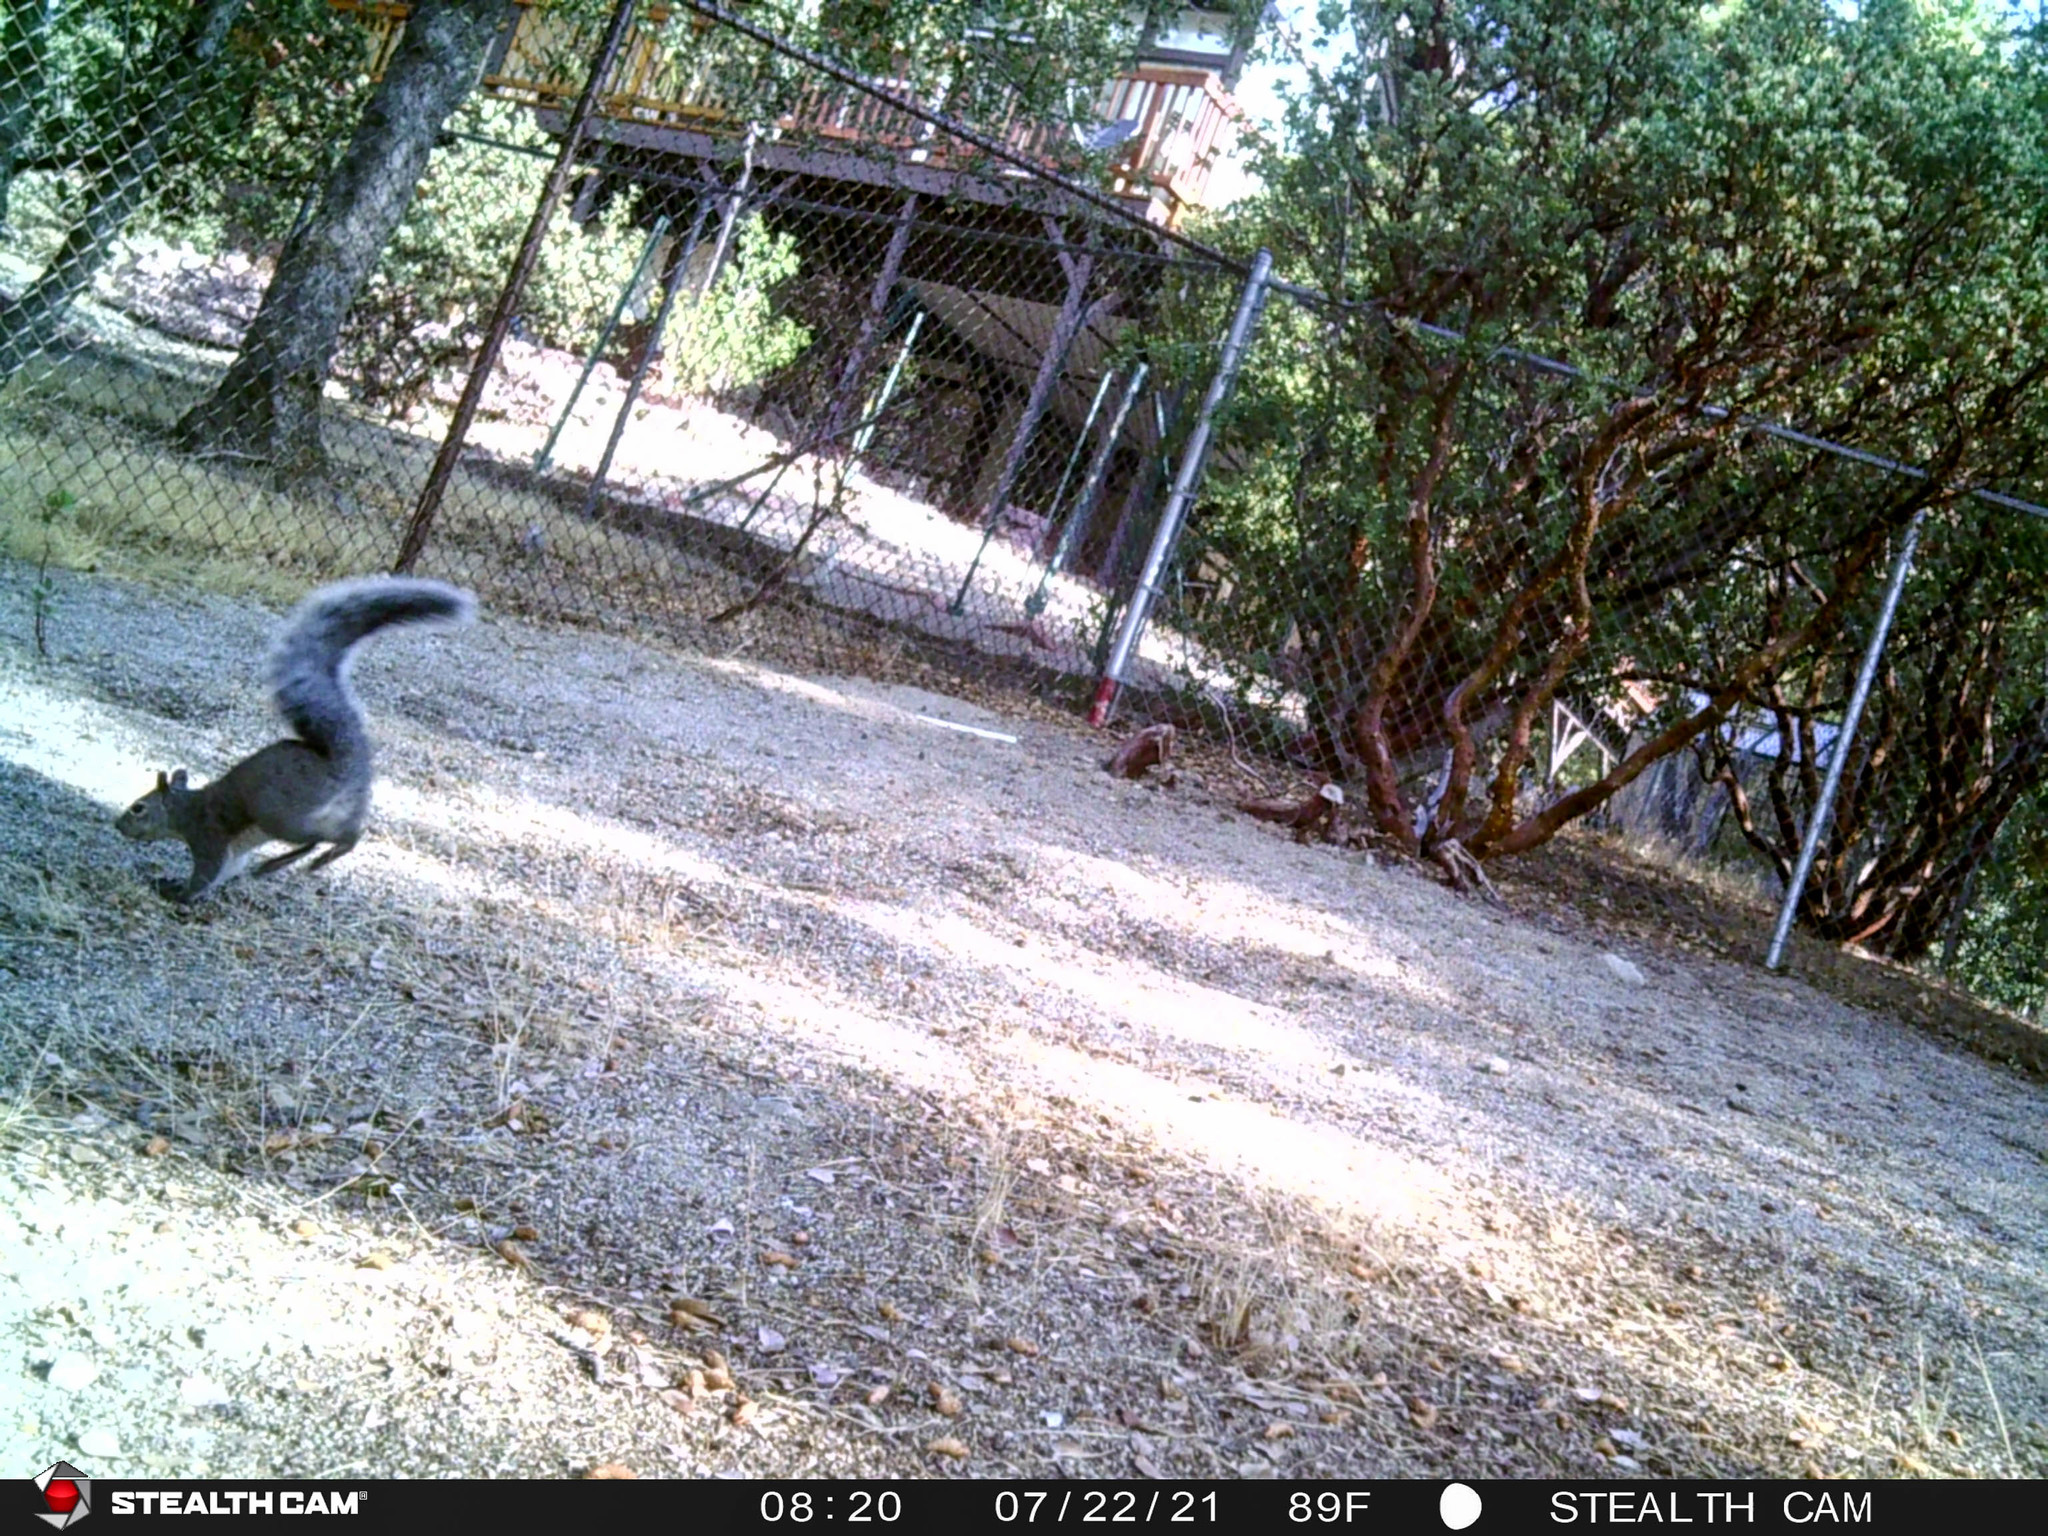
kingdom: Animalia
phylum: Chordata
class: Mammalia
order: Rodentia
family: Sciuridae
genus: Sciurus
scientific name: Sciurus griseus
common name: Western gray squirrel
